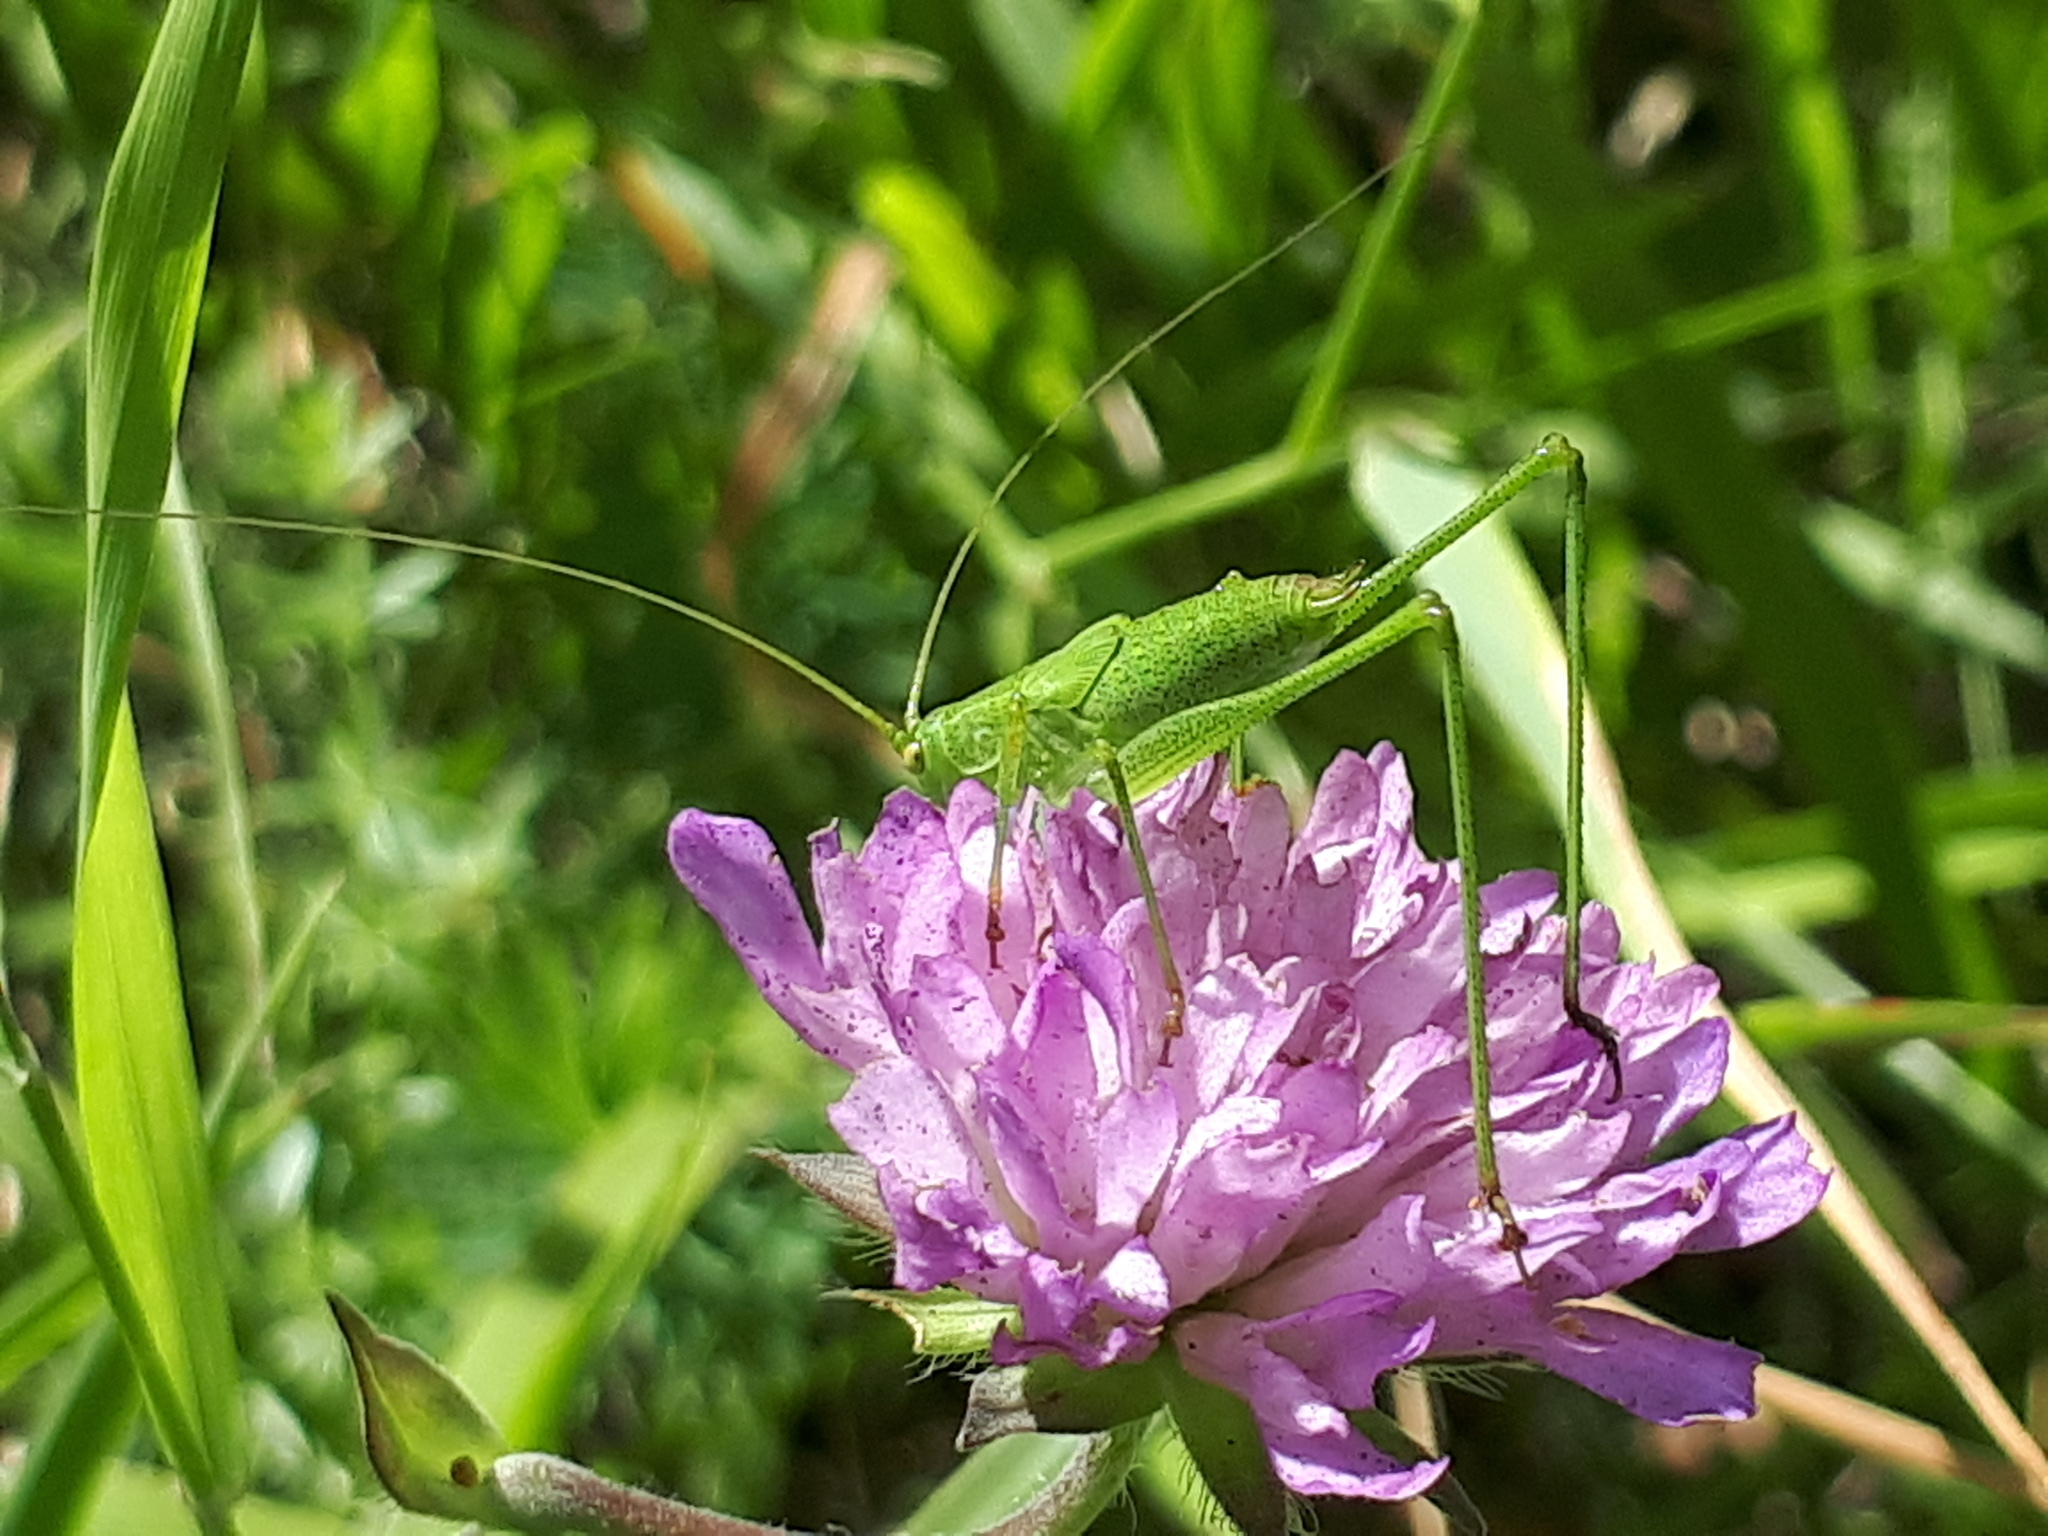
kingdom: Animalia
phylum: Arthropoda
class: Insecta
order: Orthoptera
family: Tettigoniidae
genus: Phaneroptera
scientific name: Phaneroptera falcata
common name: Sickle-bearing bush-cricket
